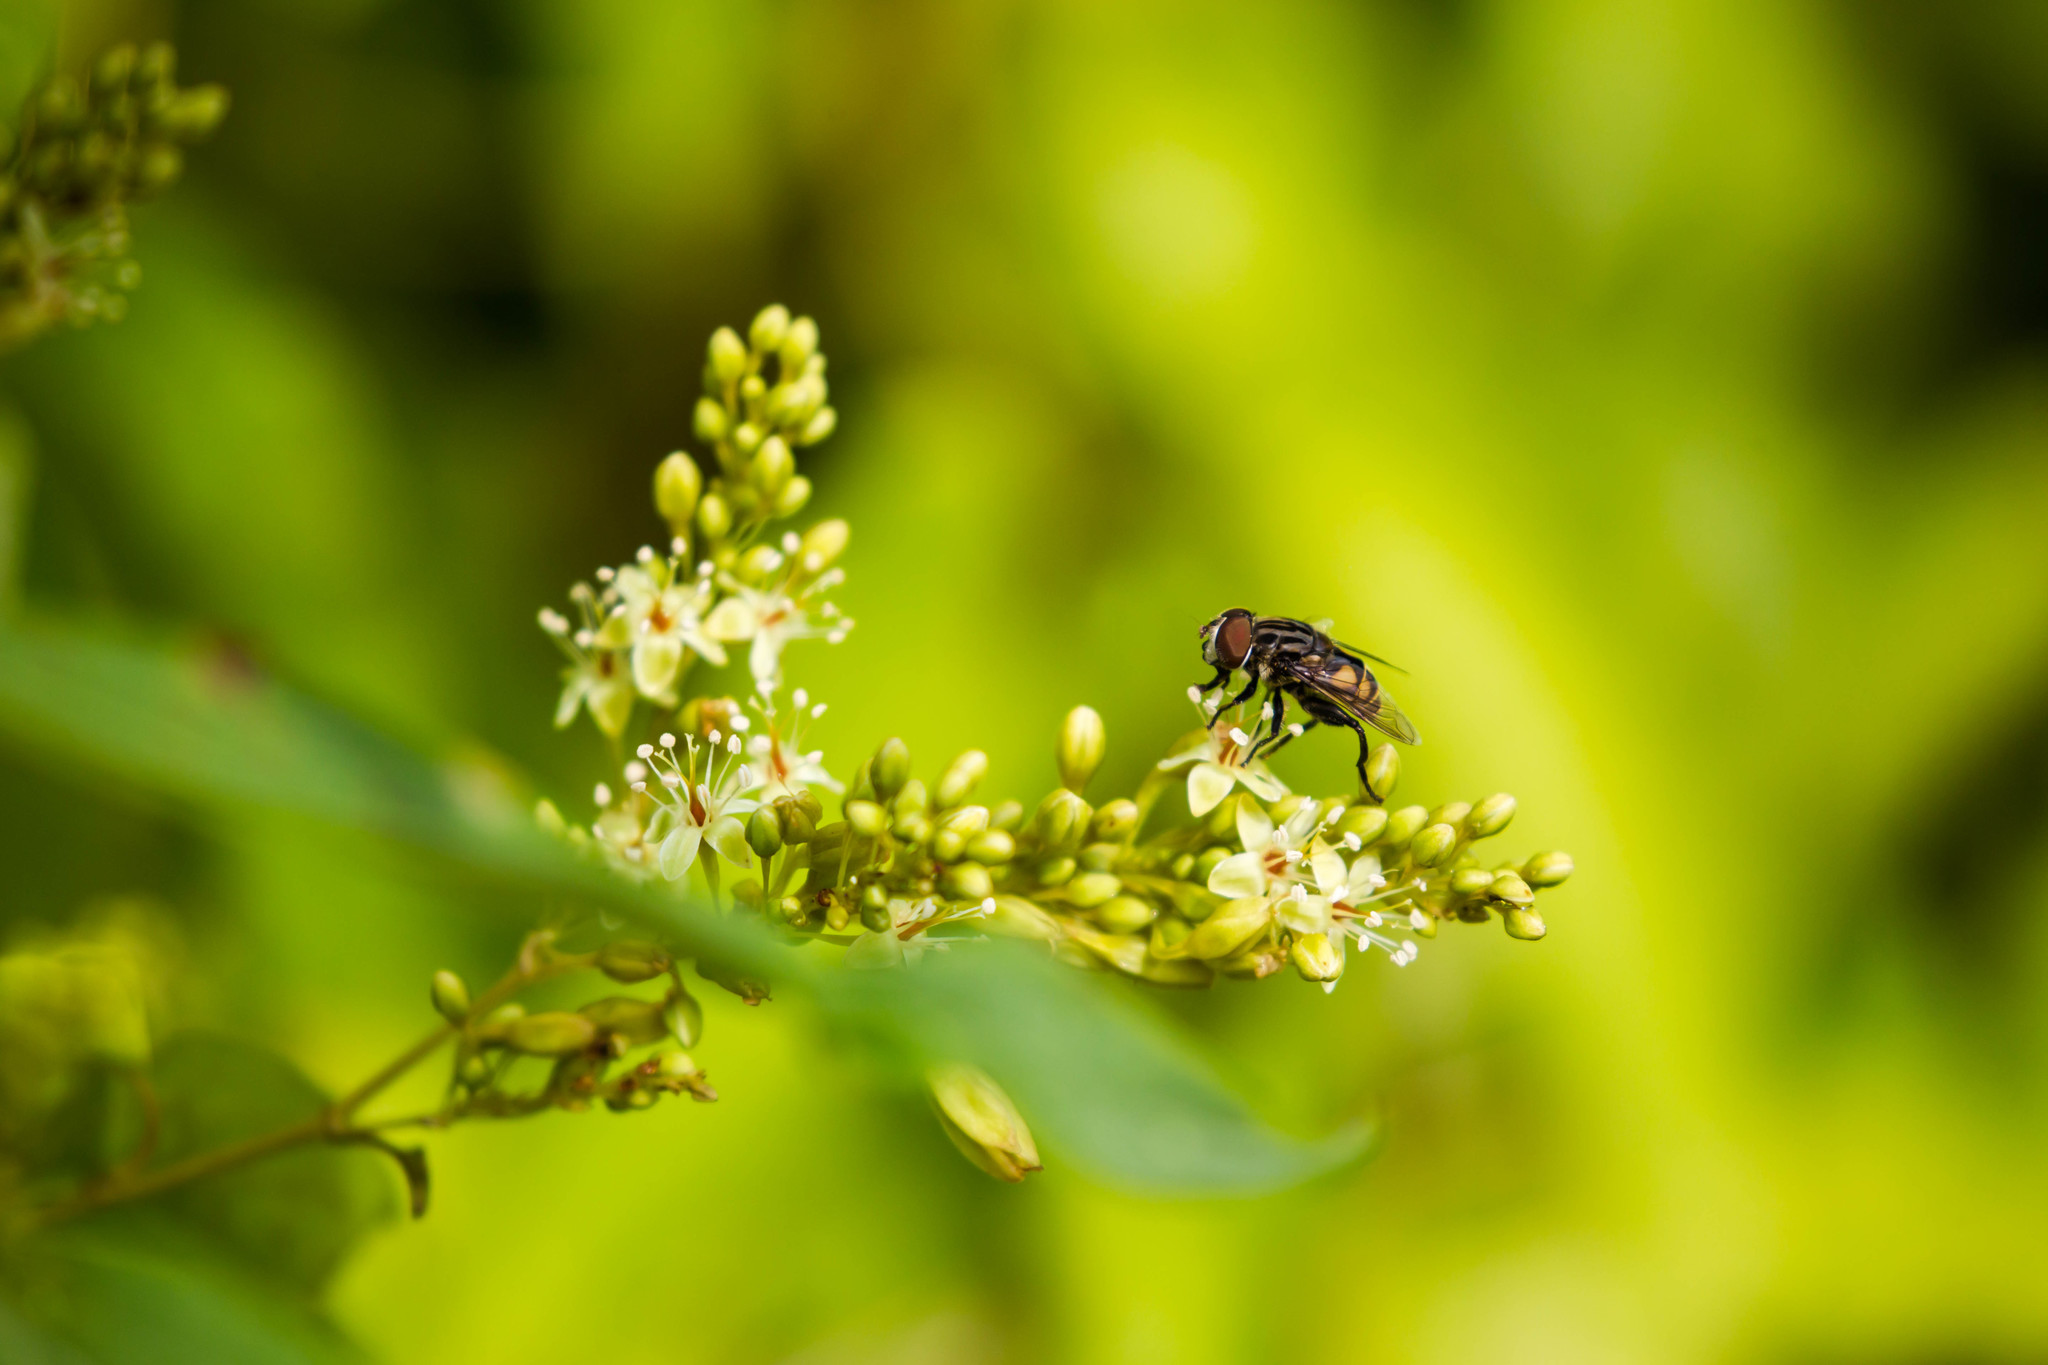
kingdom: Animalia
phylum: Arthropoda
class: Insecta
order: Diptera
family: Syrphidae
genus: Palpada
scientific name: Palpada furcata
